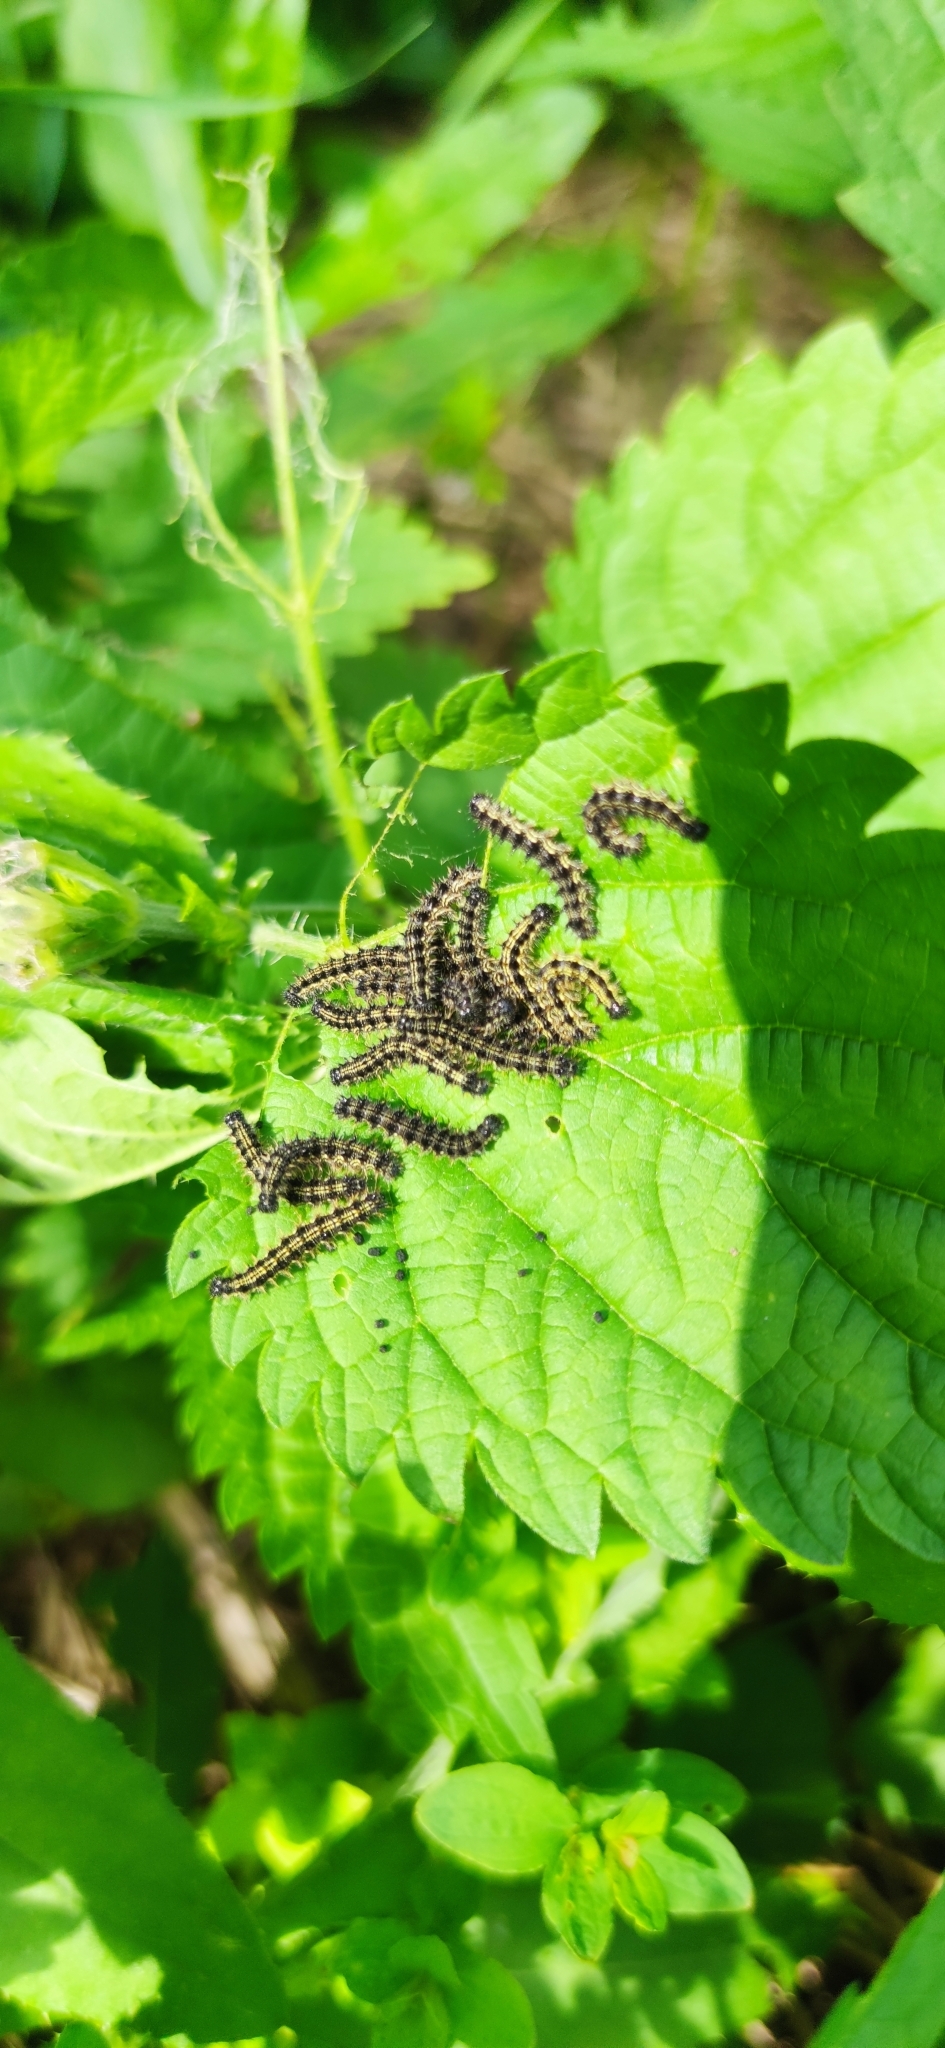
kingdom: Animalia
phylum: Arthropoda
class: Insecta
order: Lepidoptera
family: Nymphalidae
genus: Aglais
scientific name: Aglais urticae
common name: Small tortoiseshell
